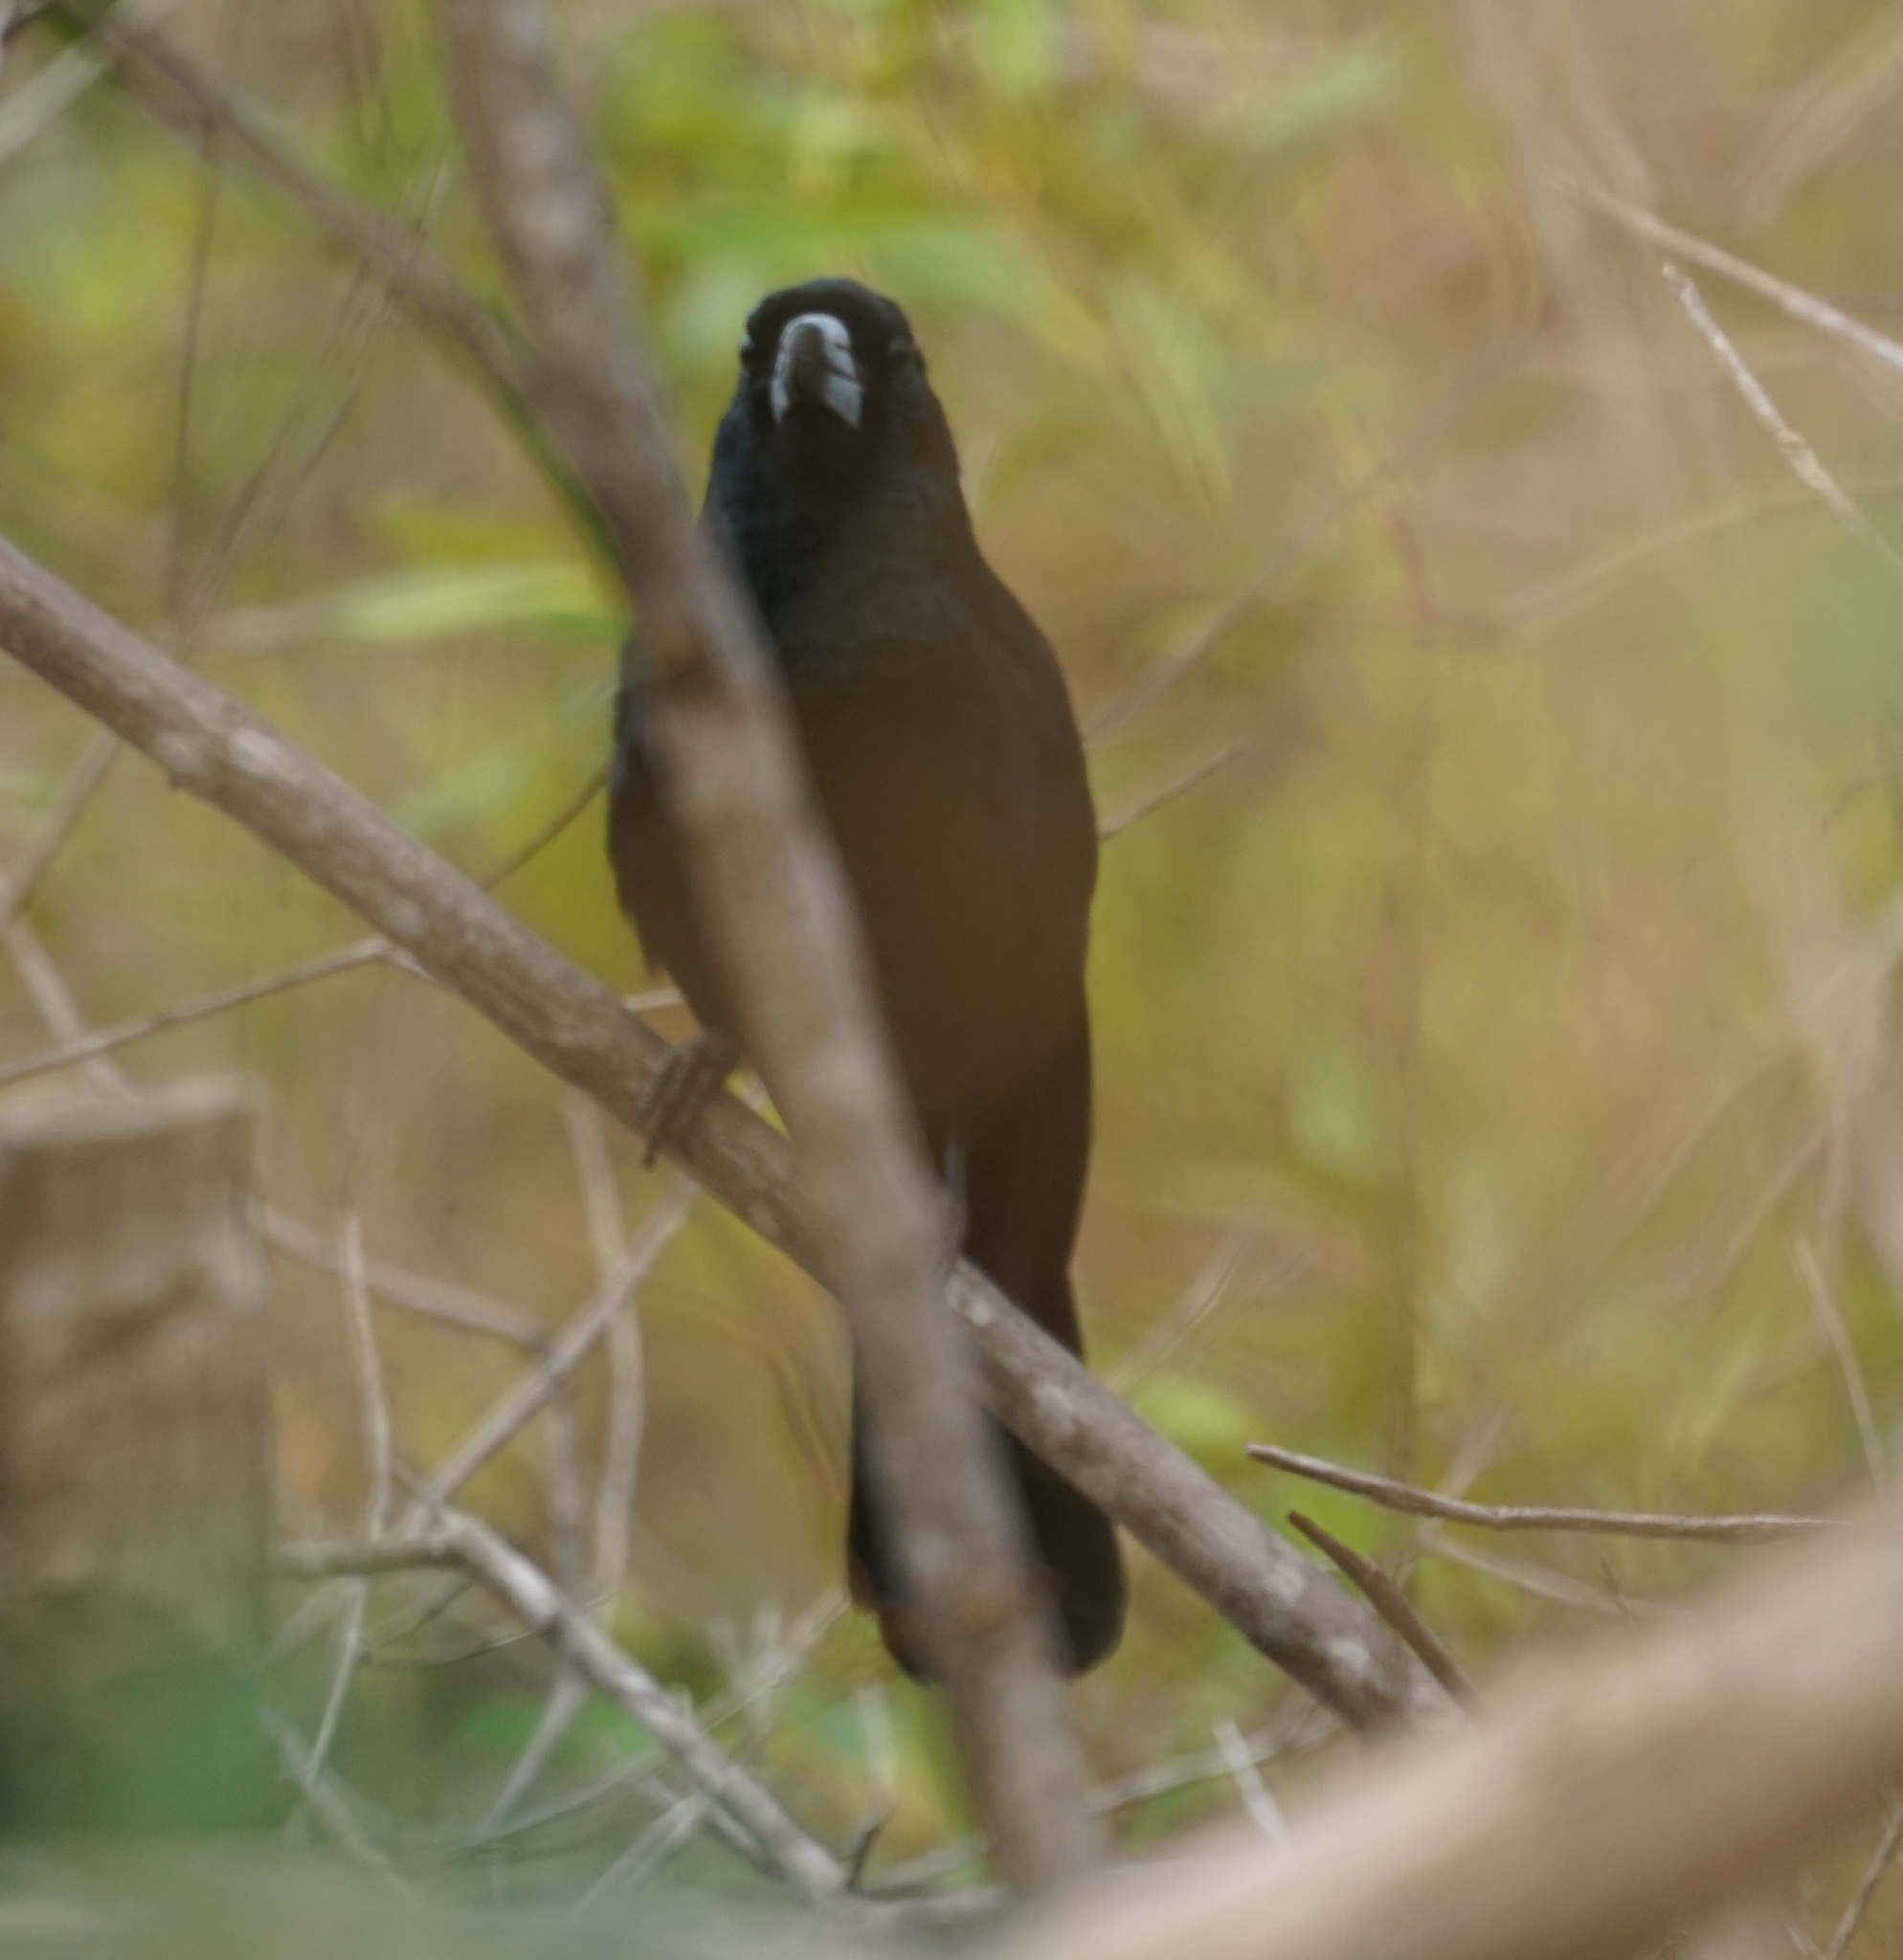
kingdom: Animalia
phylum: Chordata
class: Aves
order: Passeriformes
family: Artamidae
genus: Melloria
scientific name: Melloria quoyi
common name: Black butcherbird
